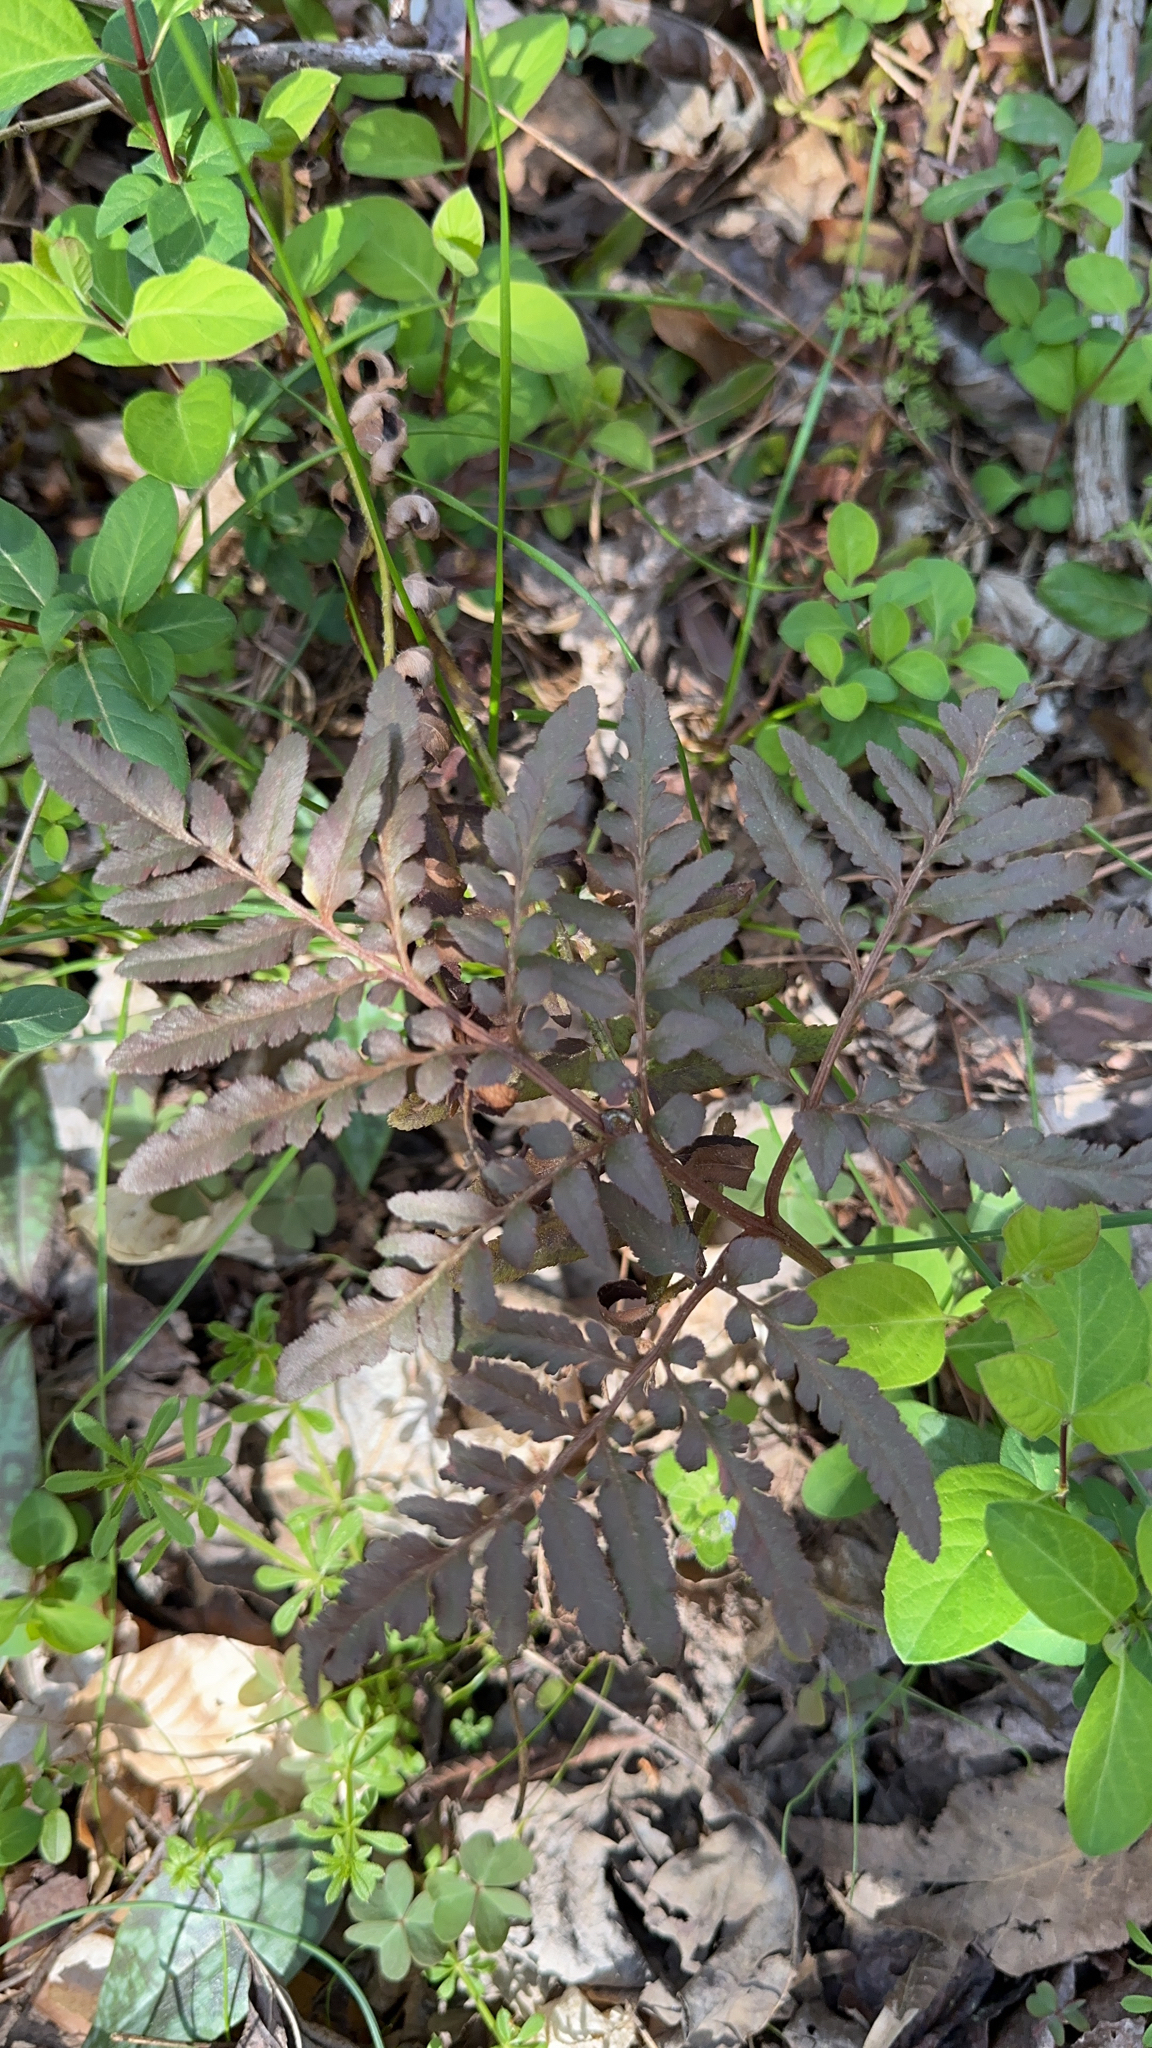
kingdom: Plantae
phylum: Tracheophyta
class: Polypodiopsida
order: Ophioglossales
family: Ophioglossaceae
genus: Sceptridium
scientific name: Sceptridium dissectum
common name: Cut-leaved grapefern
